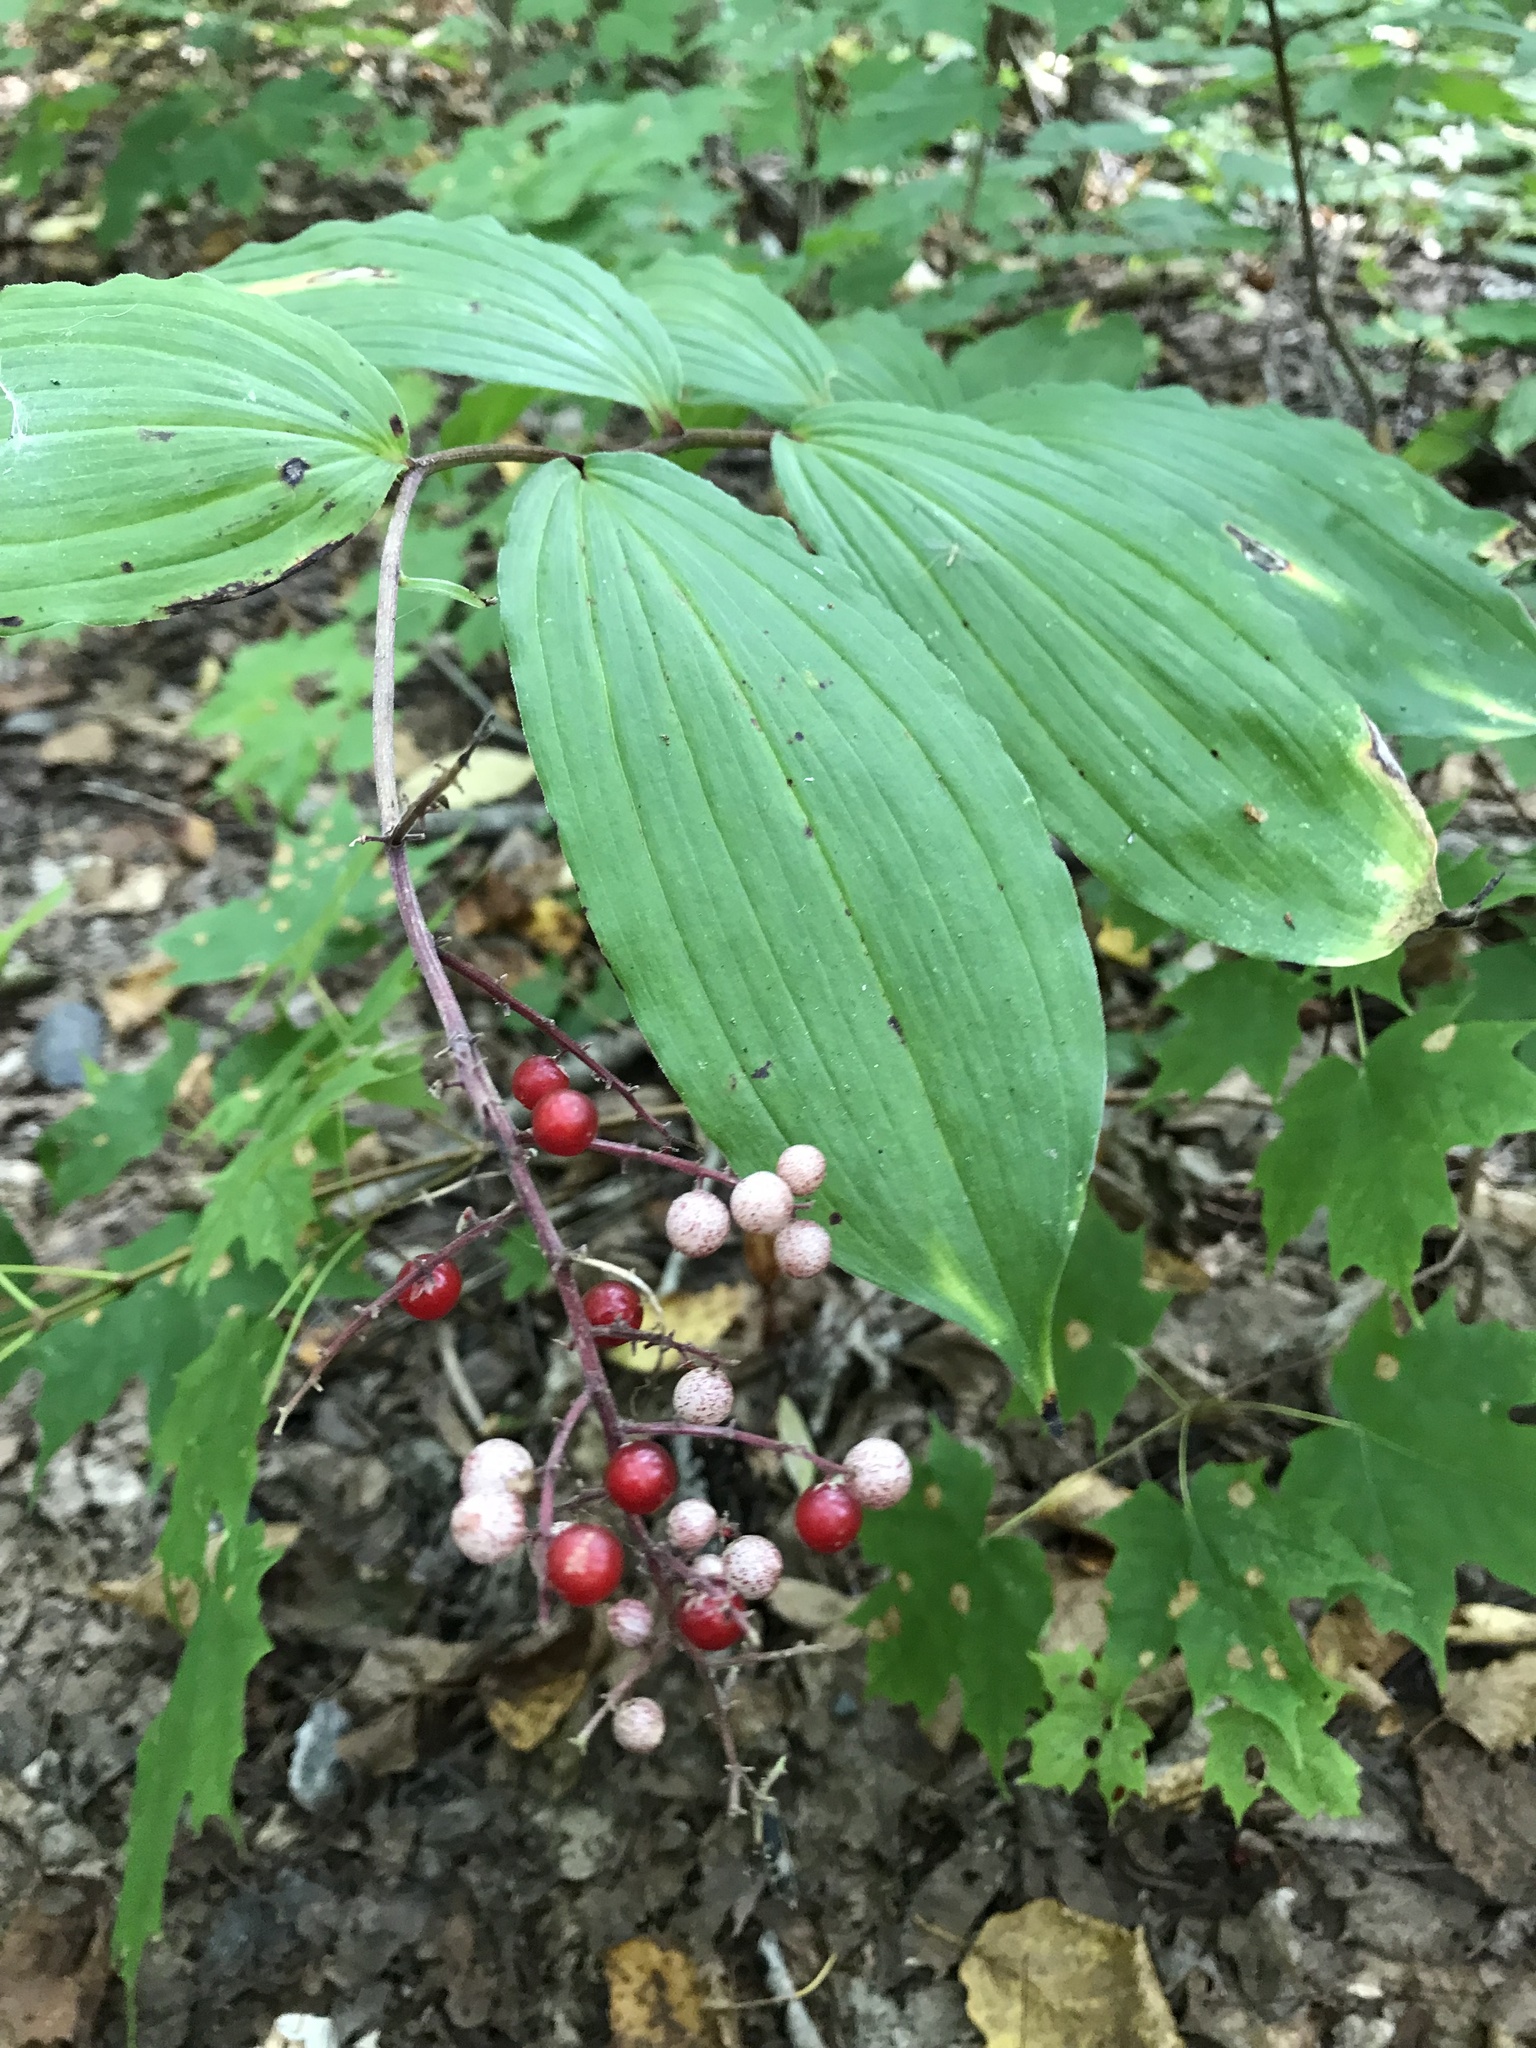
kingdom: Plantae
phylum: Tracheophyta
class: Liliopsida
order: Asparagales
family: Asparagaceae
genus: Maianthemum
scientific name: Maianthemum racemosum
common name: False spikenard
